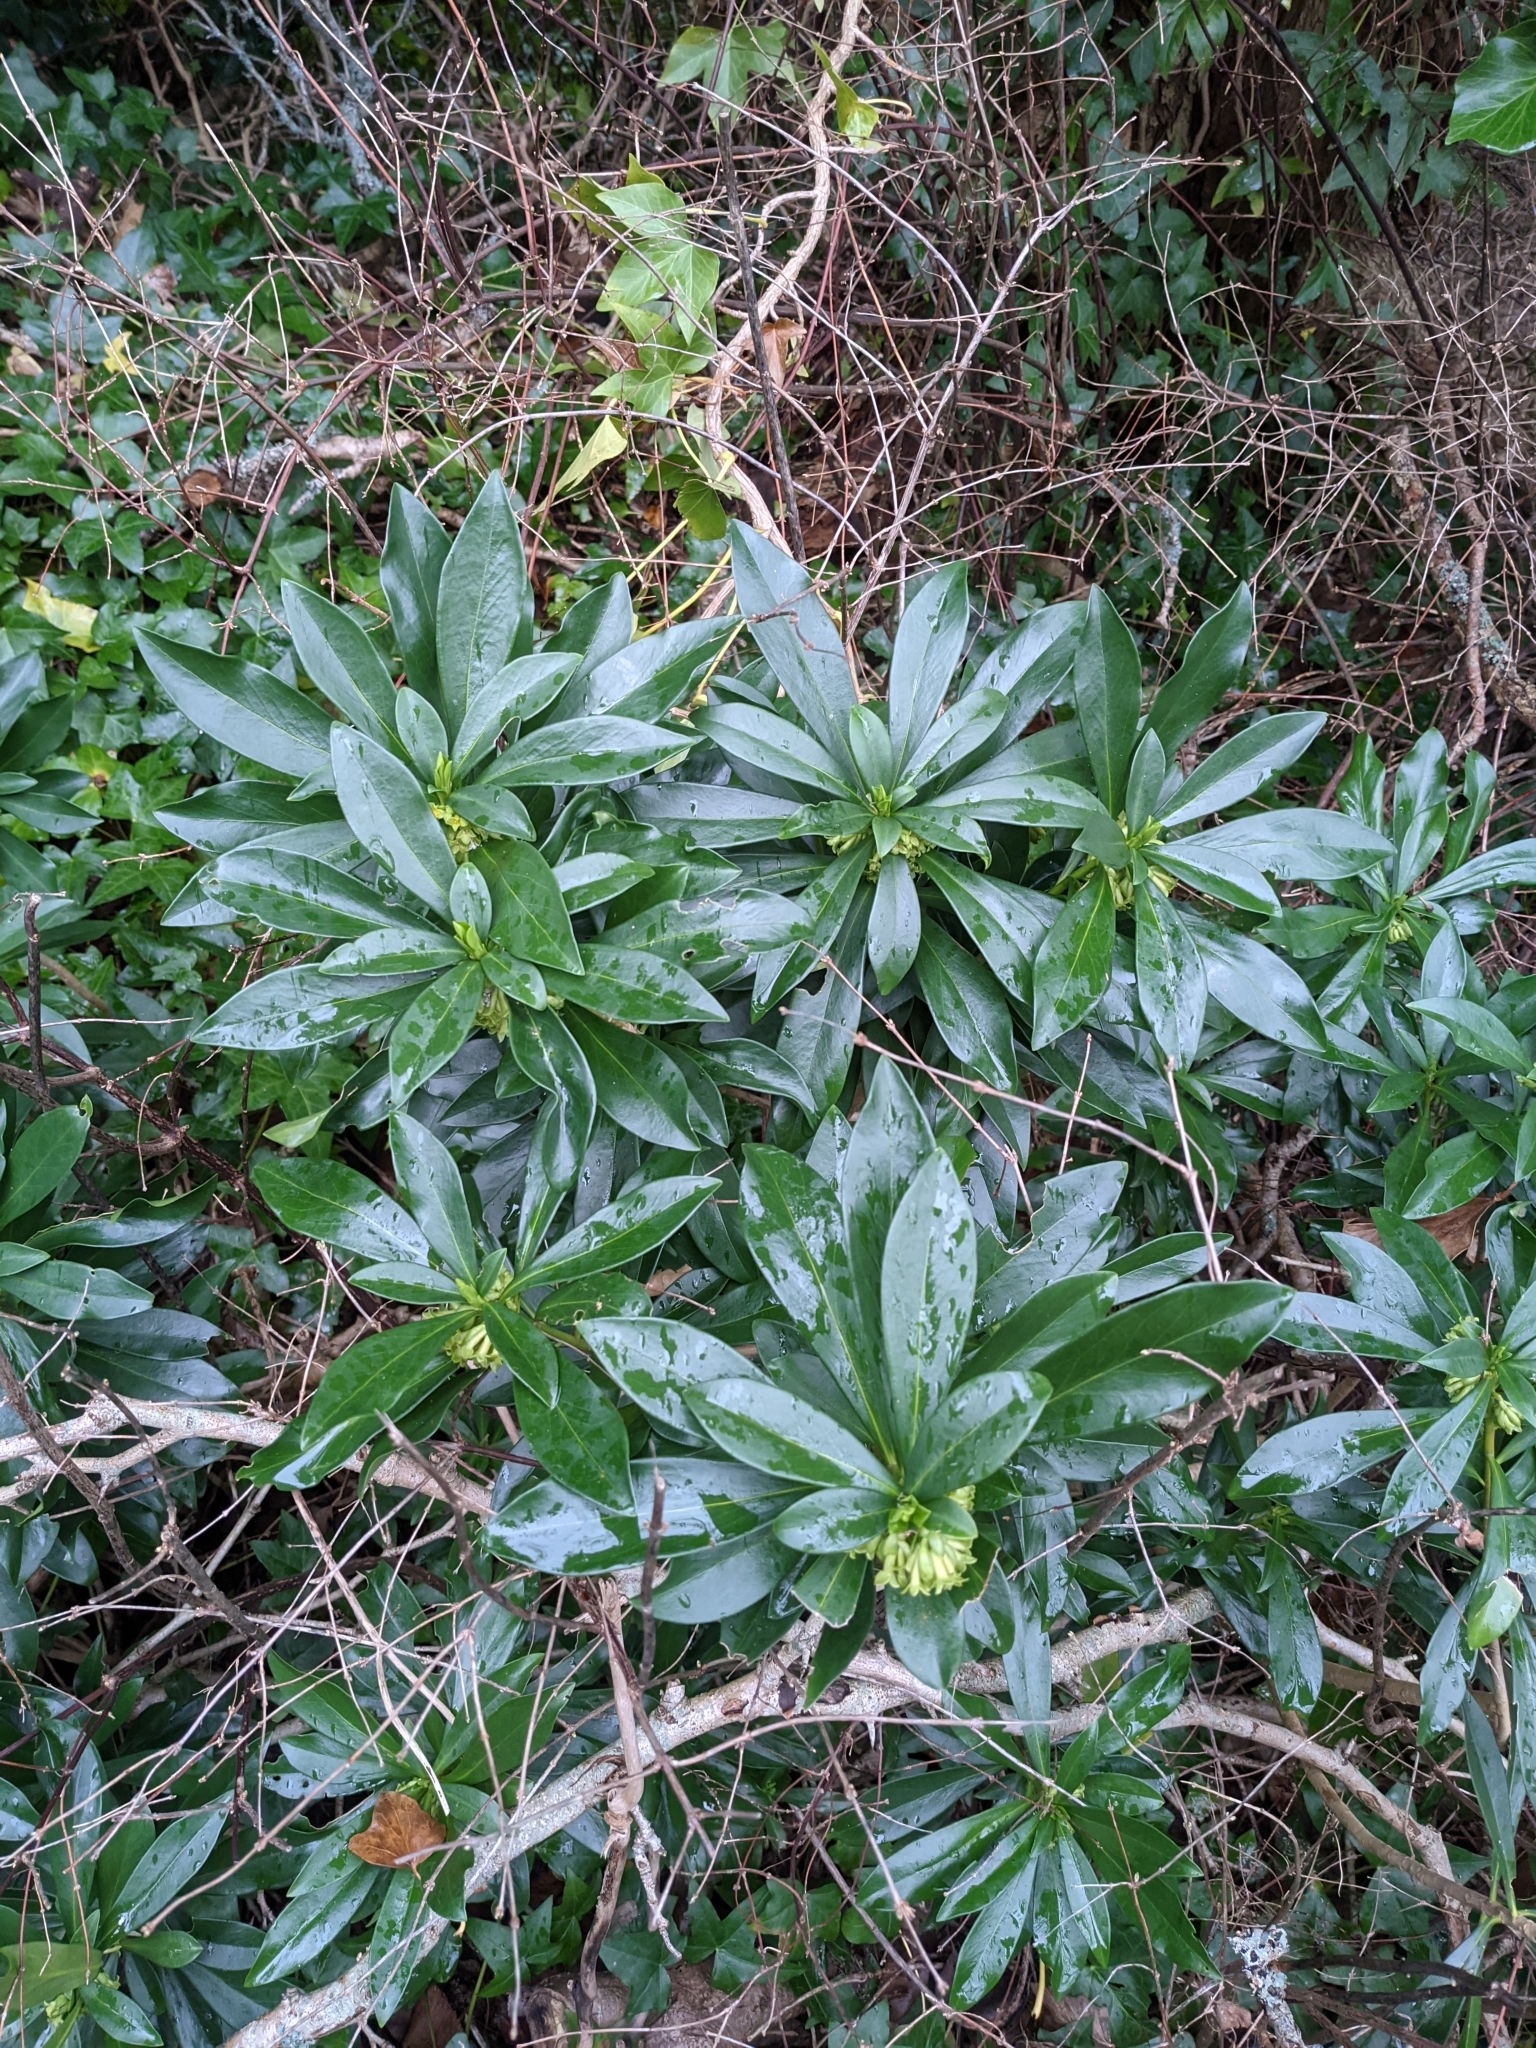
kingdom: Plantae
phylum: Tracheophyta
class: Magnoliopsida
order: Malvales
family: Thymelaeaceae
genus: Daphne
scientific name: Daphne laureola
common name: Spurge-laurel
